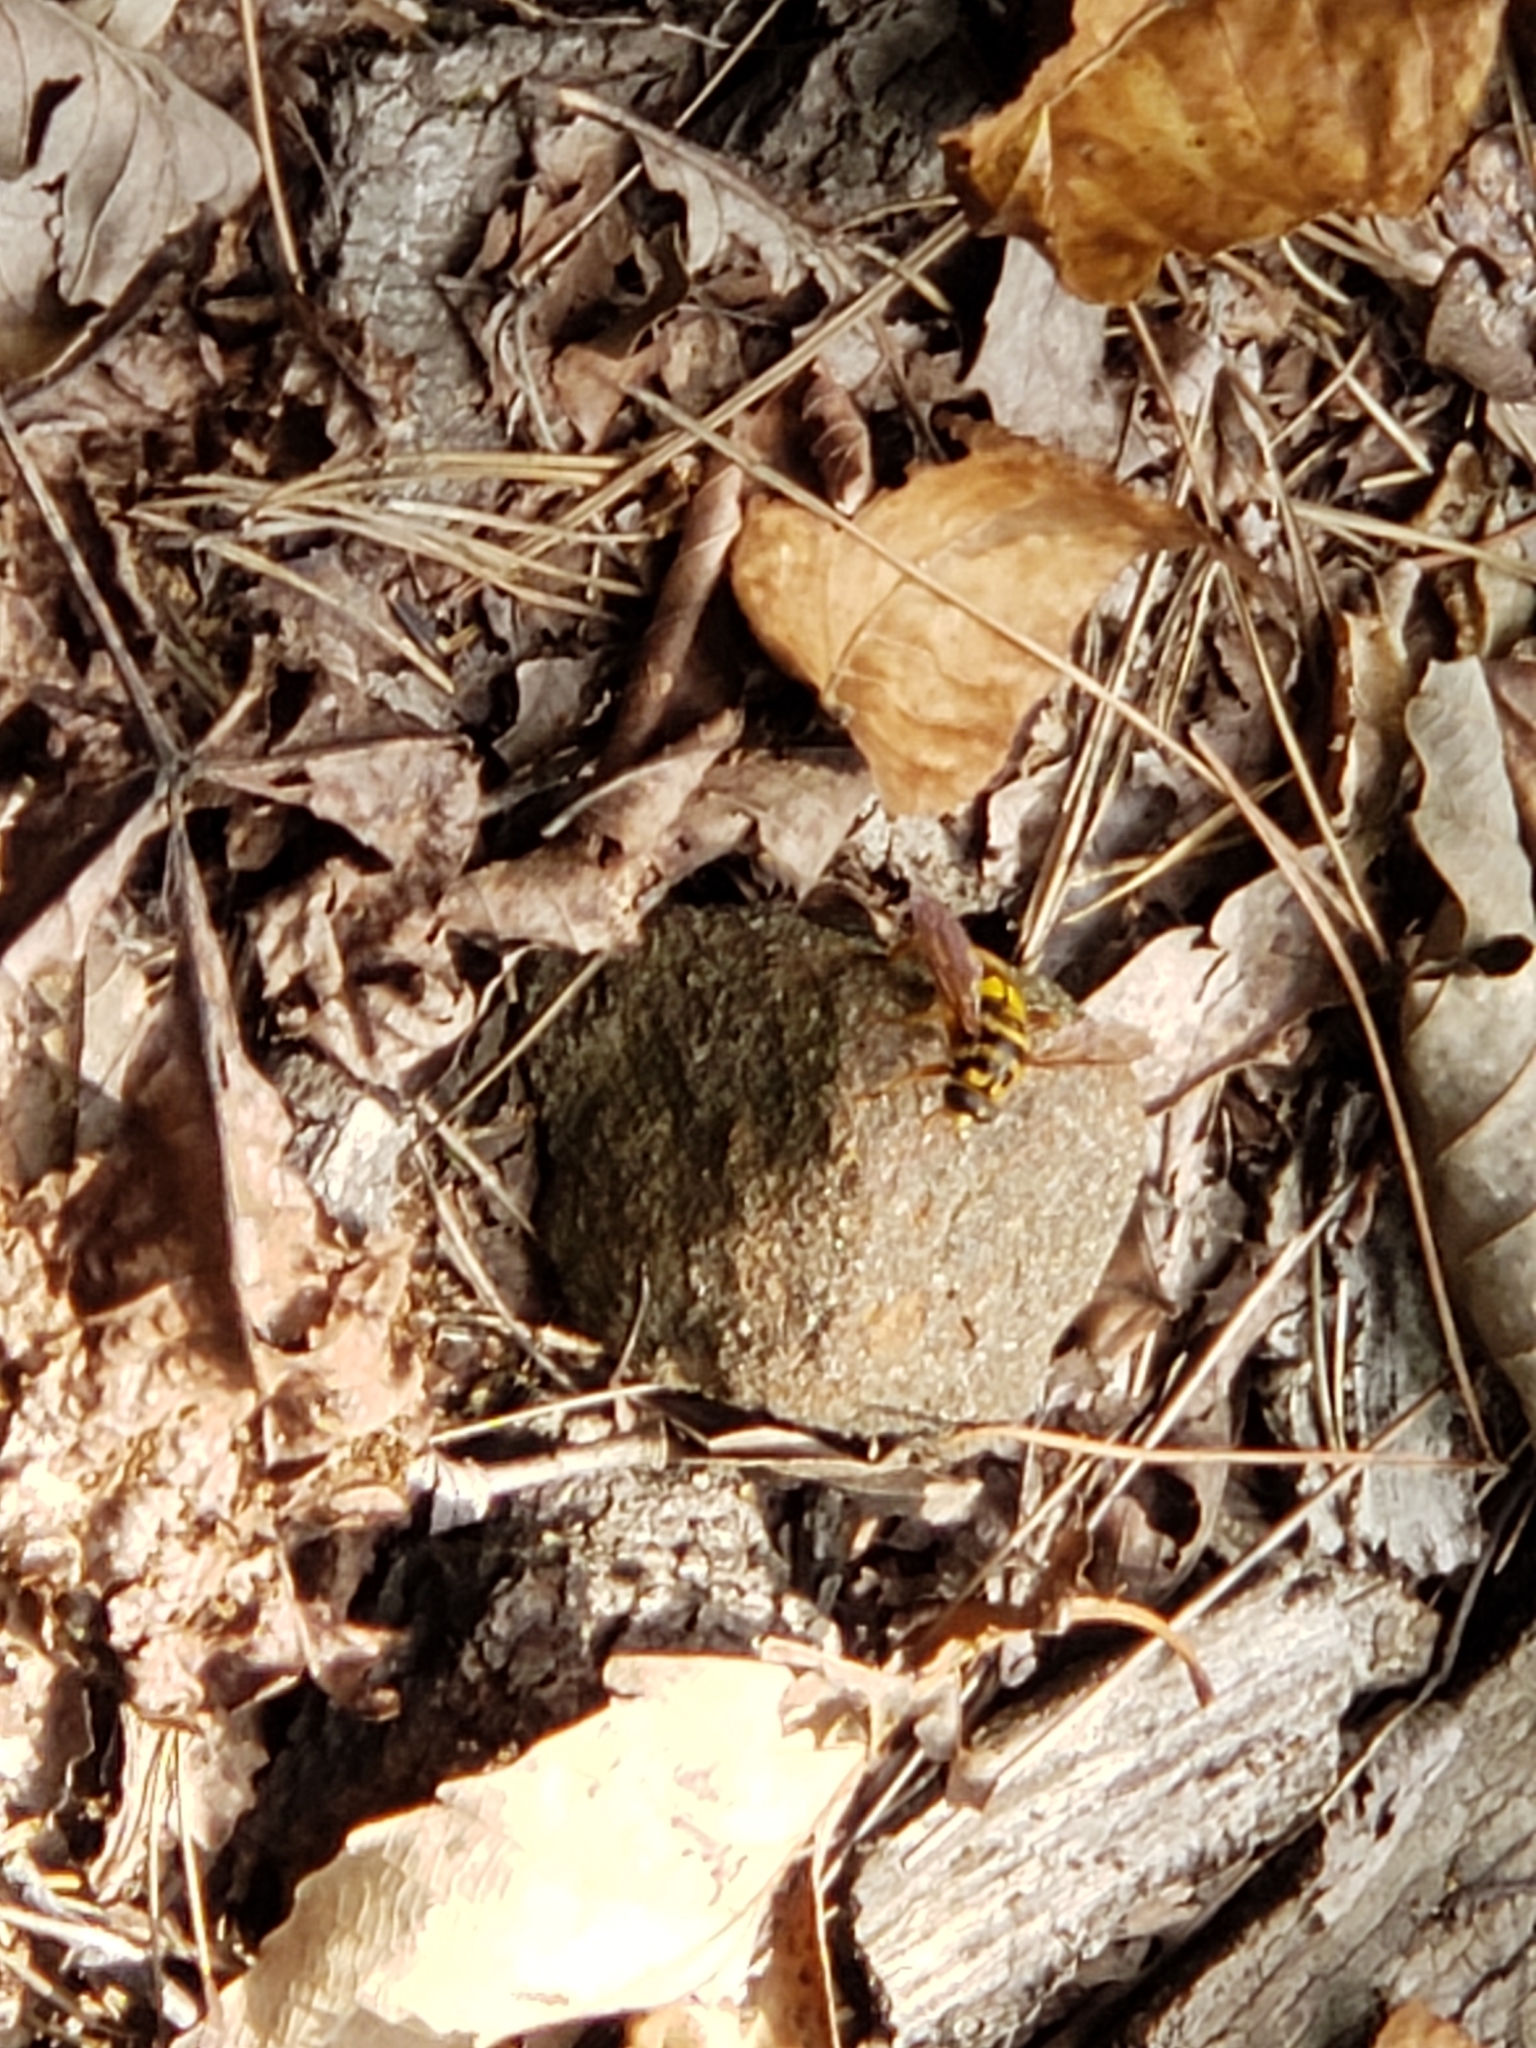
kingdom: Animalia
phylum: Arthropoda
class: Insecta
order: Diptera
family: Syrphidae
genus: Milesia
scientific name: Milesia virginiensis
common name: Virginia giant
